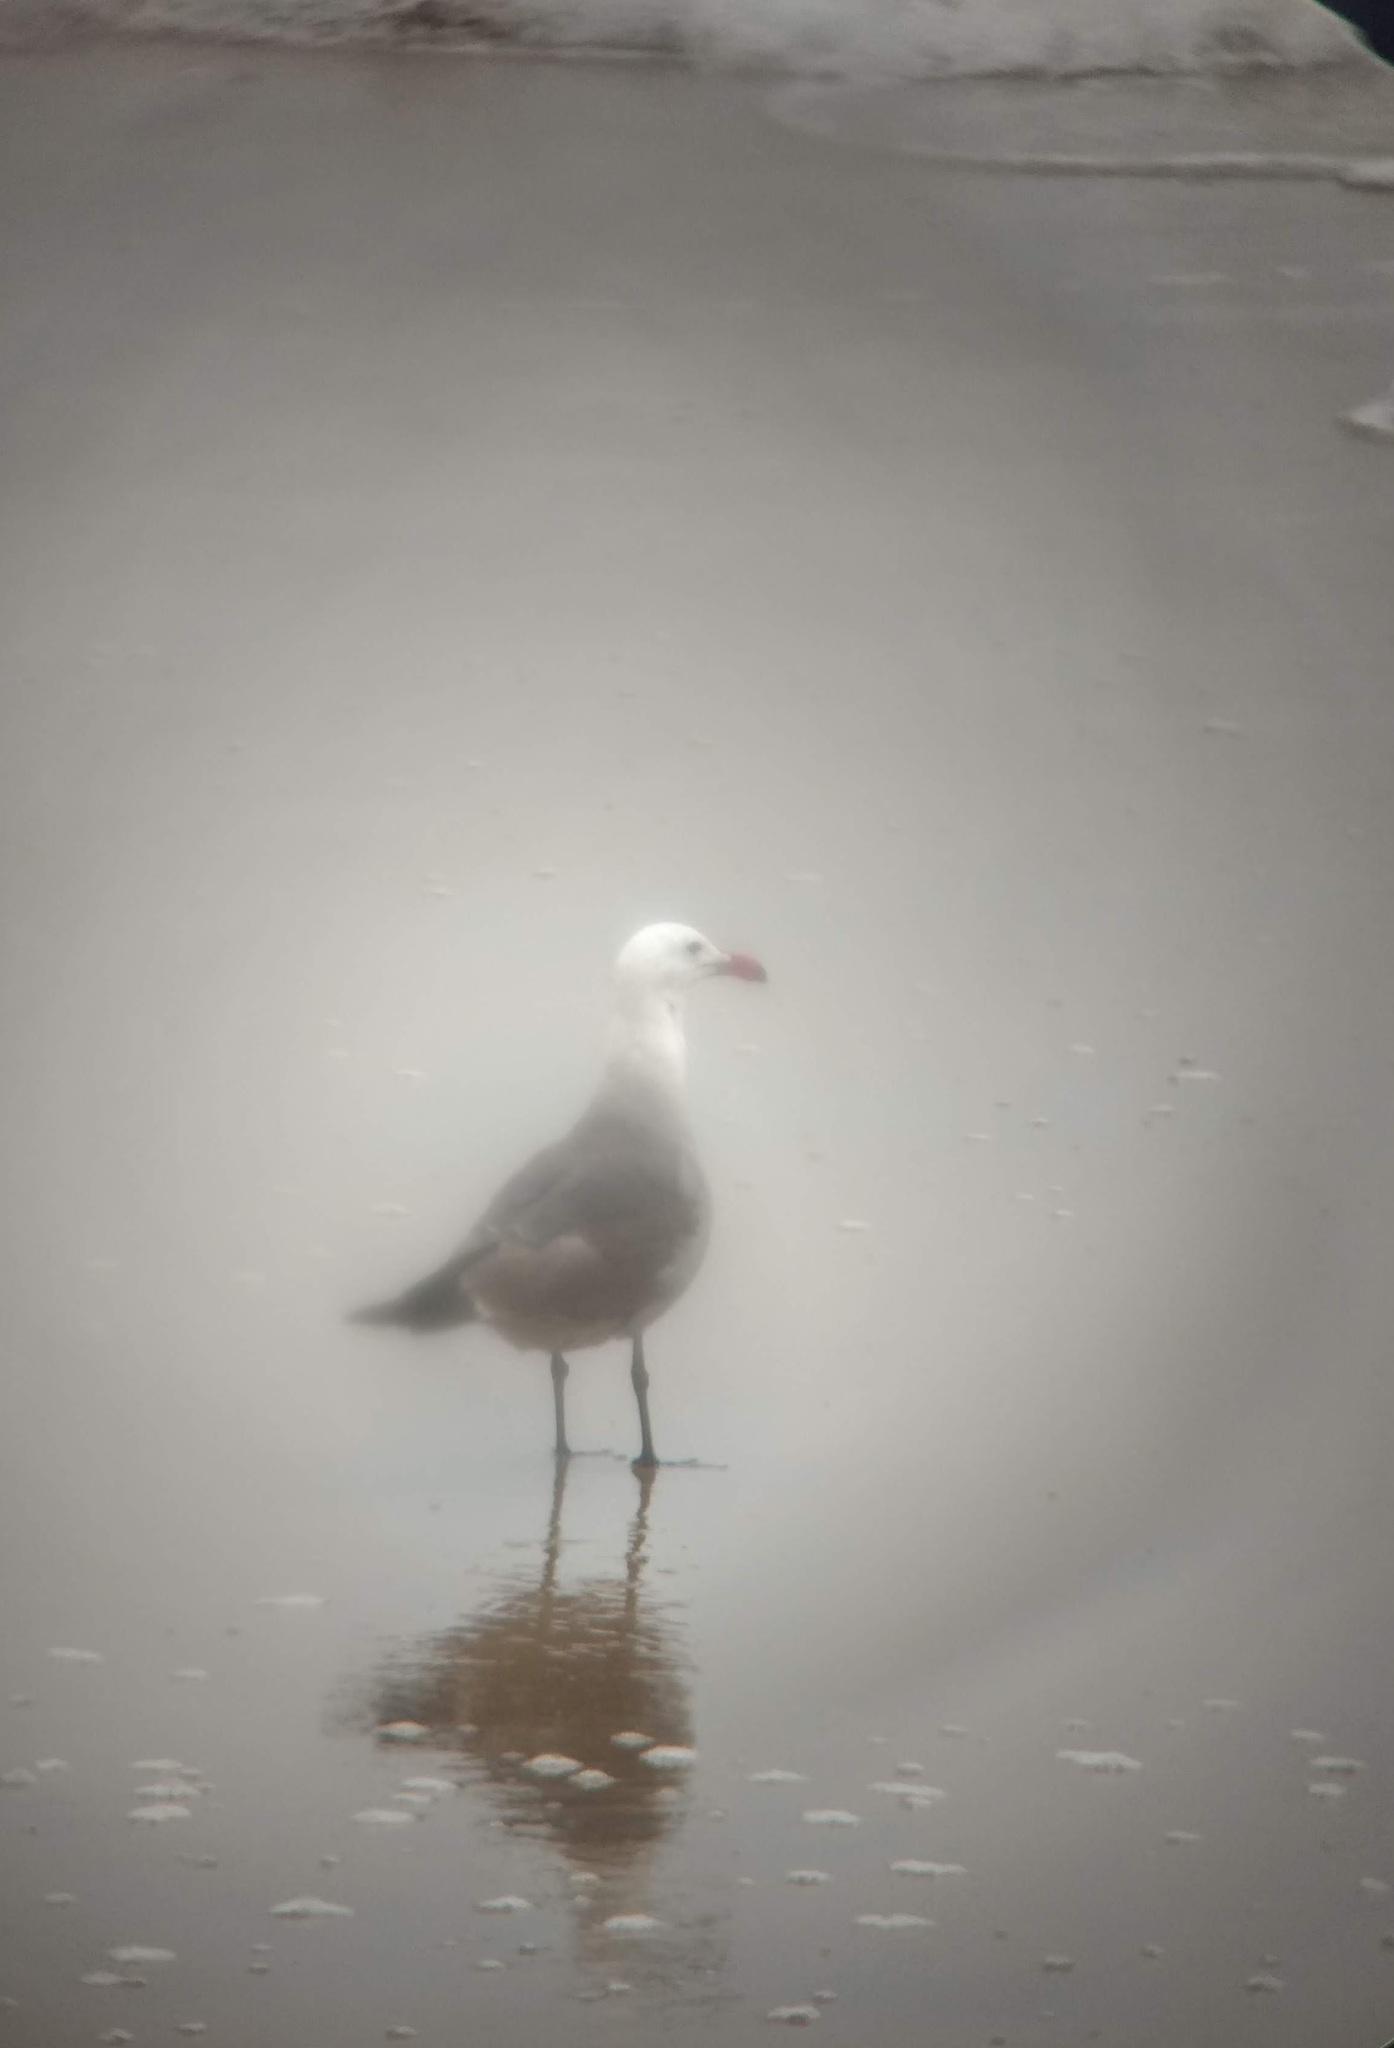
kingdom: Animalia
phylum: Chordata
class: Aves
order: Charadriiformes
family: Laridae
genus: Larus
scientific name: Larus heermanni
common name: Heermann's gull
